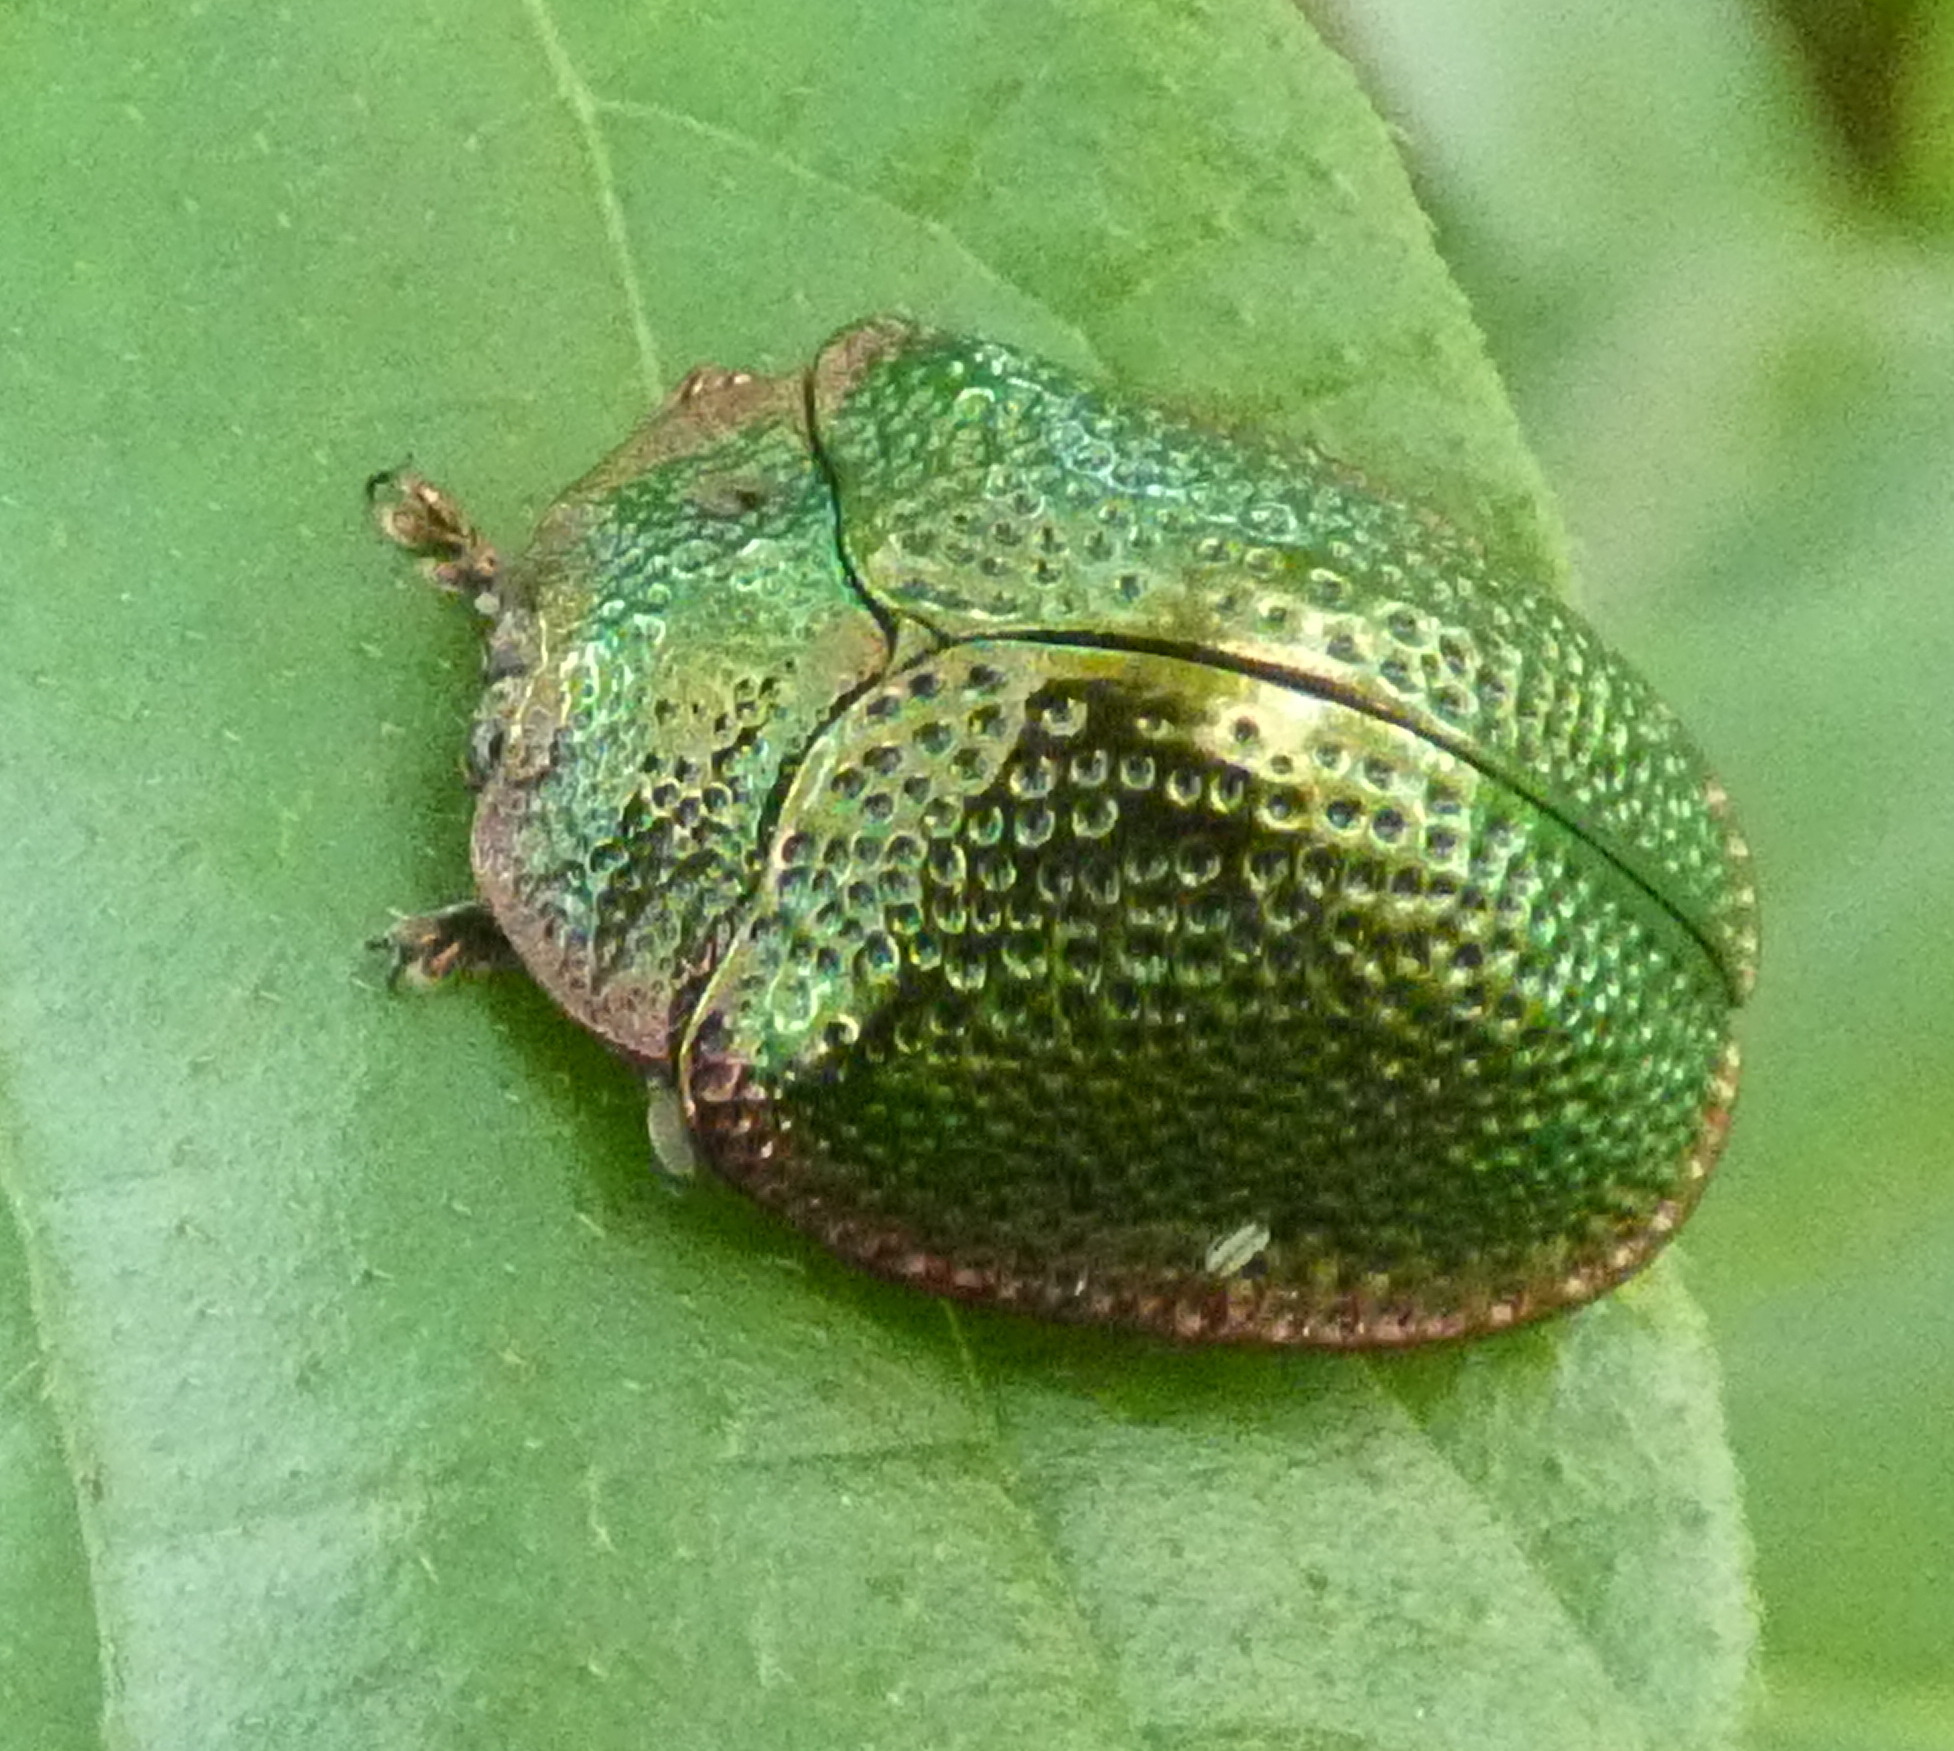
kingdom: Animalia
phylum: Arthropoda
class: Insecta
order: Coleoptera
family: Chrysomelidae
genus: Polychalca
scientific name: Polychalca punctatissima
